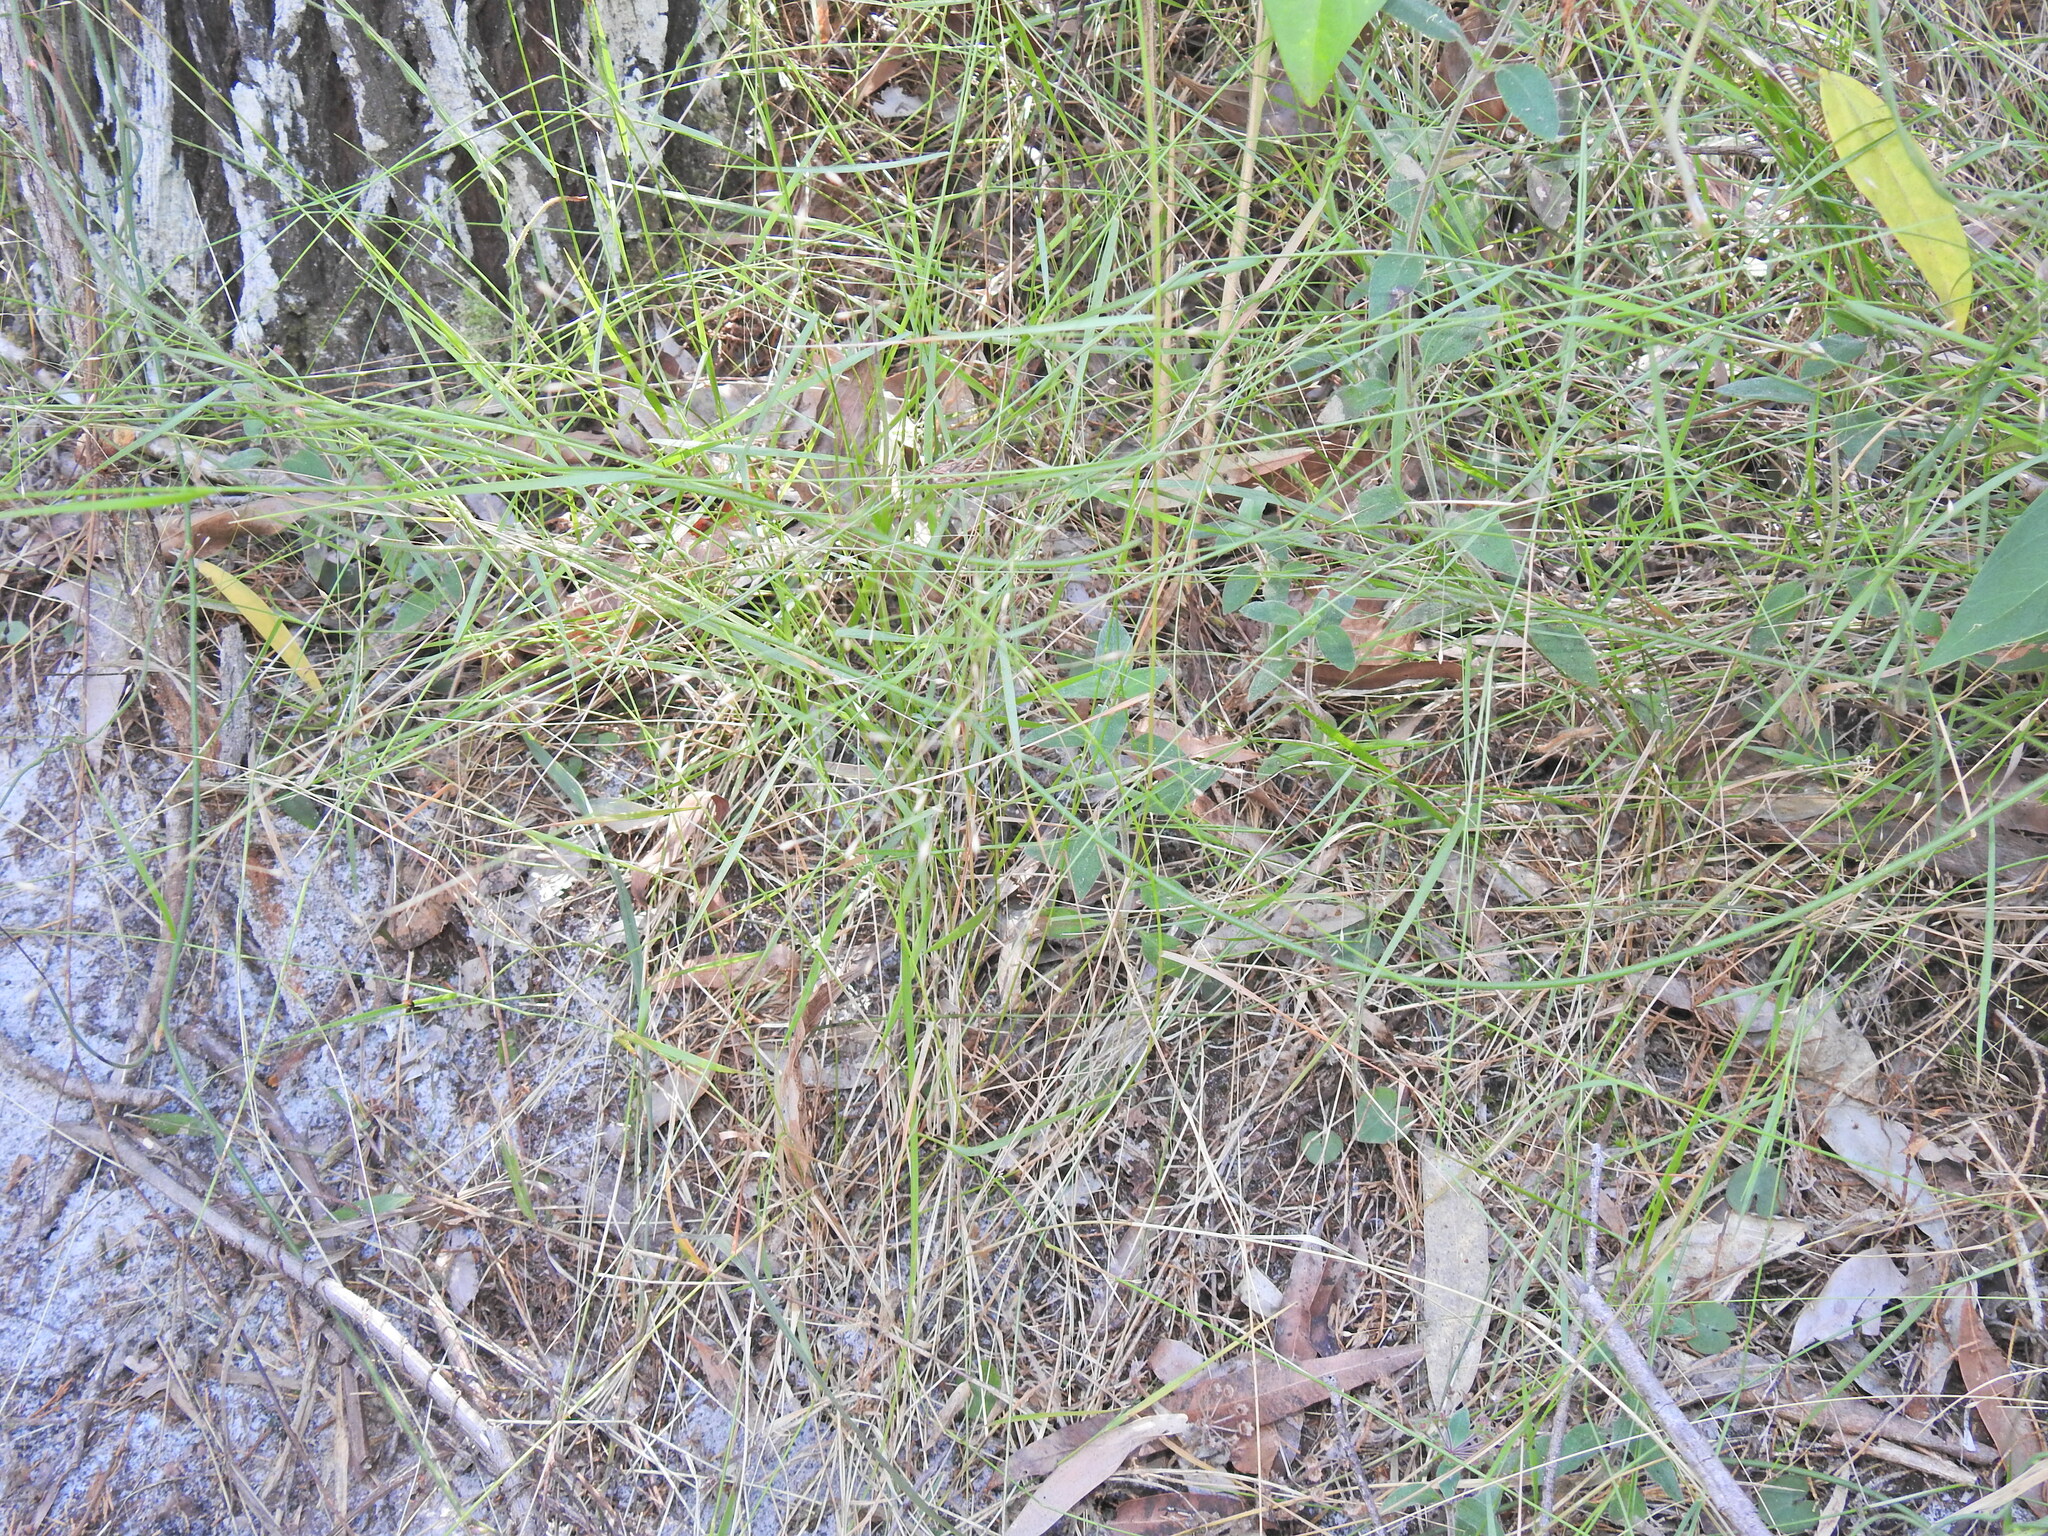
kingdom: Plantae
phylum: Tracheophyta
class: Liliopsida
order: Poales
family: Poaceae
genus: Eriachne
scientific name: Eriachne pallescens
